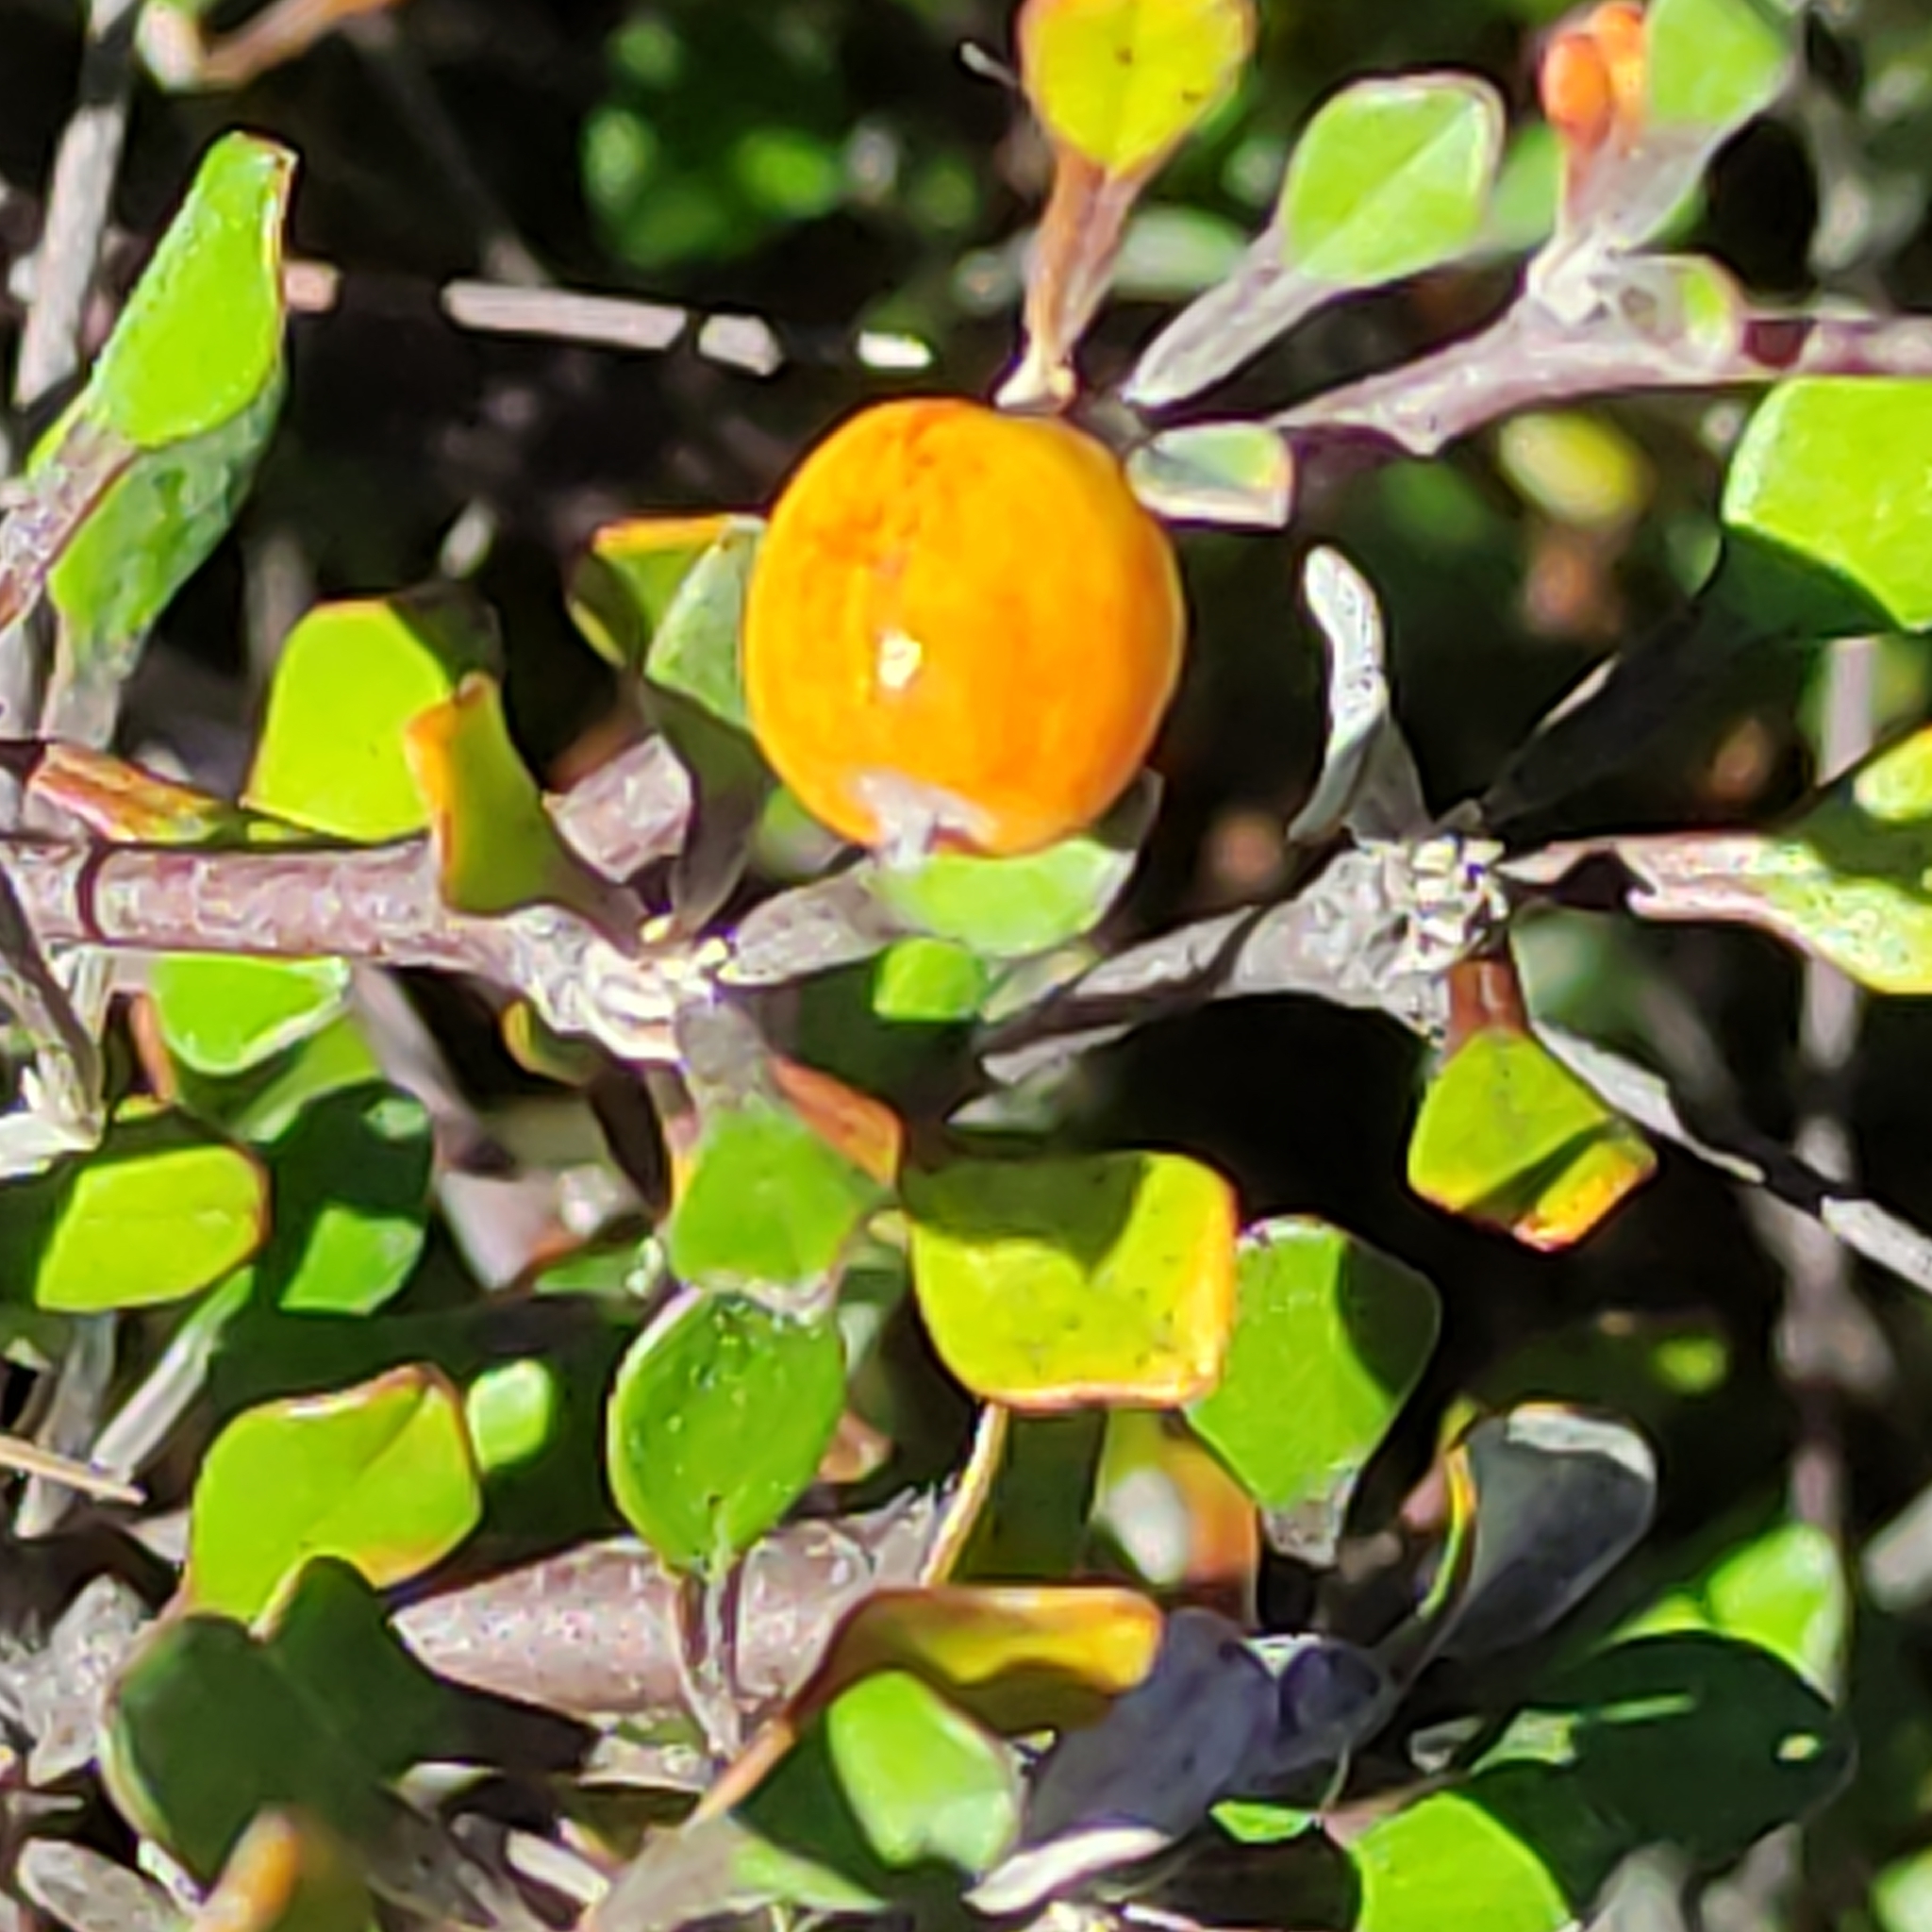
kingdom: Plantae
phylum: Tracheophyta
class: Magnoliopsida
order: Asterales
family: Argophyllaceae
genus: Corokia
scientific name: Corokia cotoneaster
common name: Wire nettingbush
